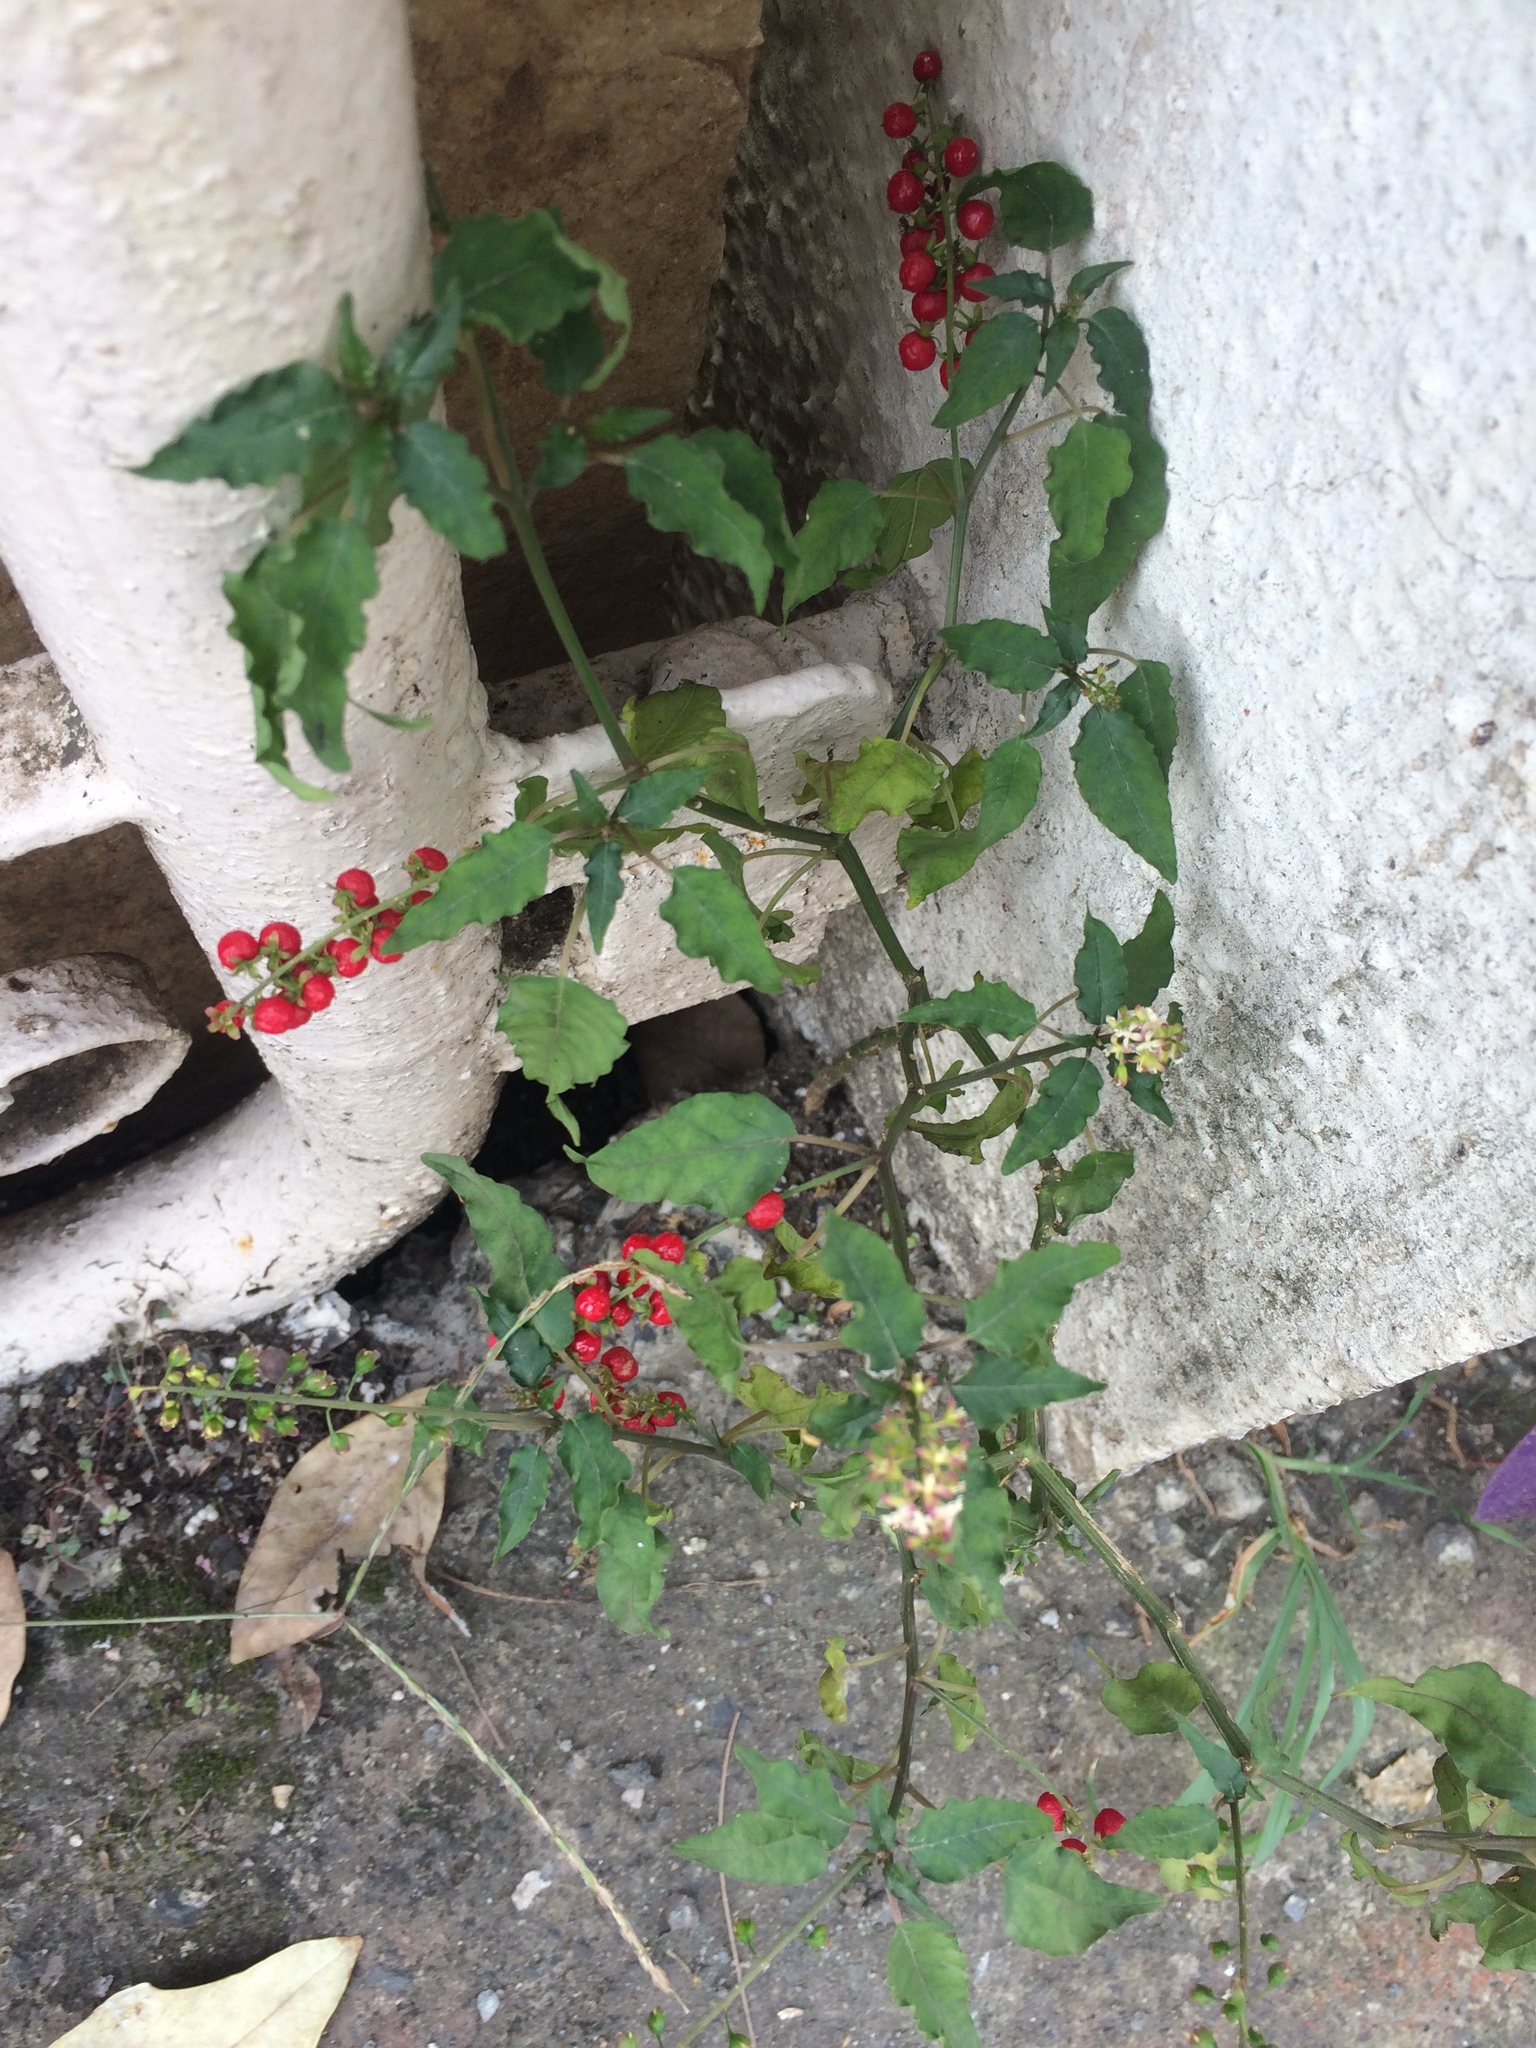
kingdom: Plantae
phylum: Tracheophyta
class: Magnoliopsida
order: Caryophyllales
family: Phytolaccaceae
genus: Rivina
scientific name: Rivina humilis
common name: Rougeplant
